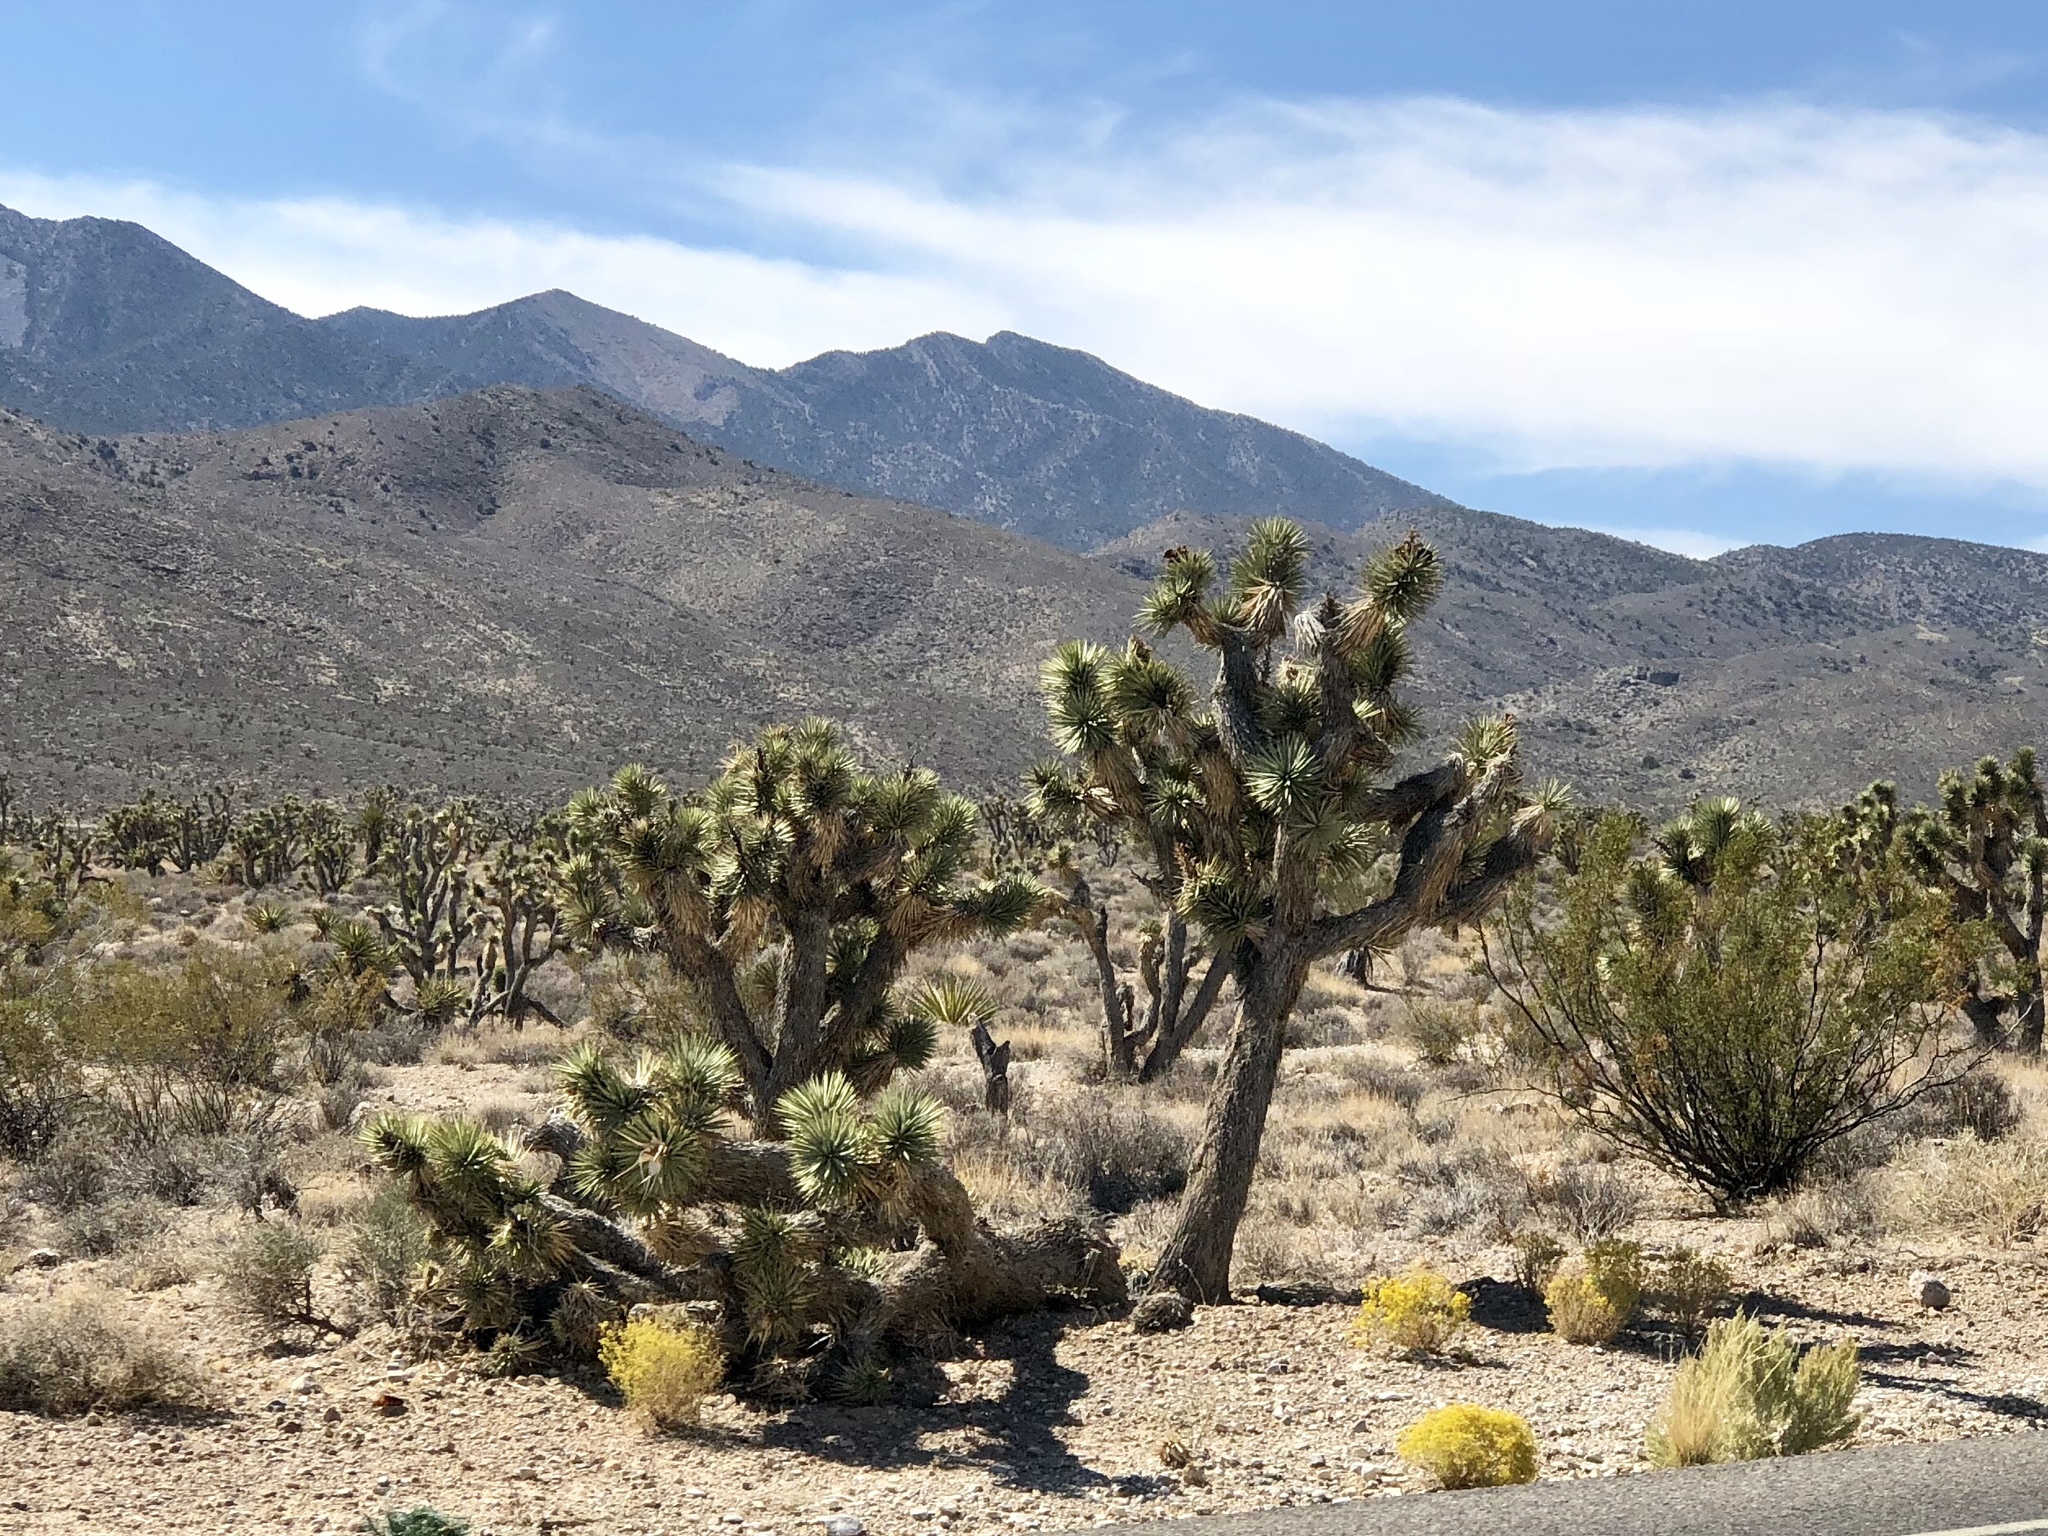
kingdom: Plantae
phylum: Tracheophyta
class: Liliopsida
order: Asparagales
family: Asparagaceae
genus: Yucca
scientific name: Yucca brevifolia
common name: Joshua tree
